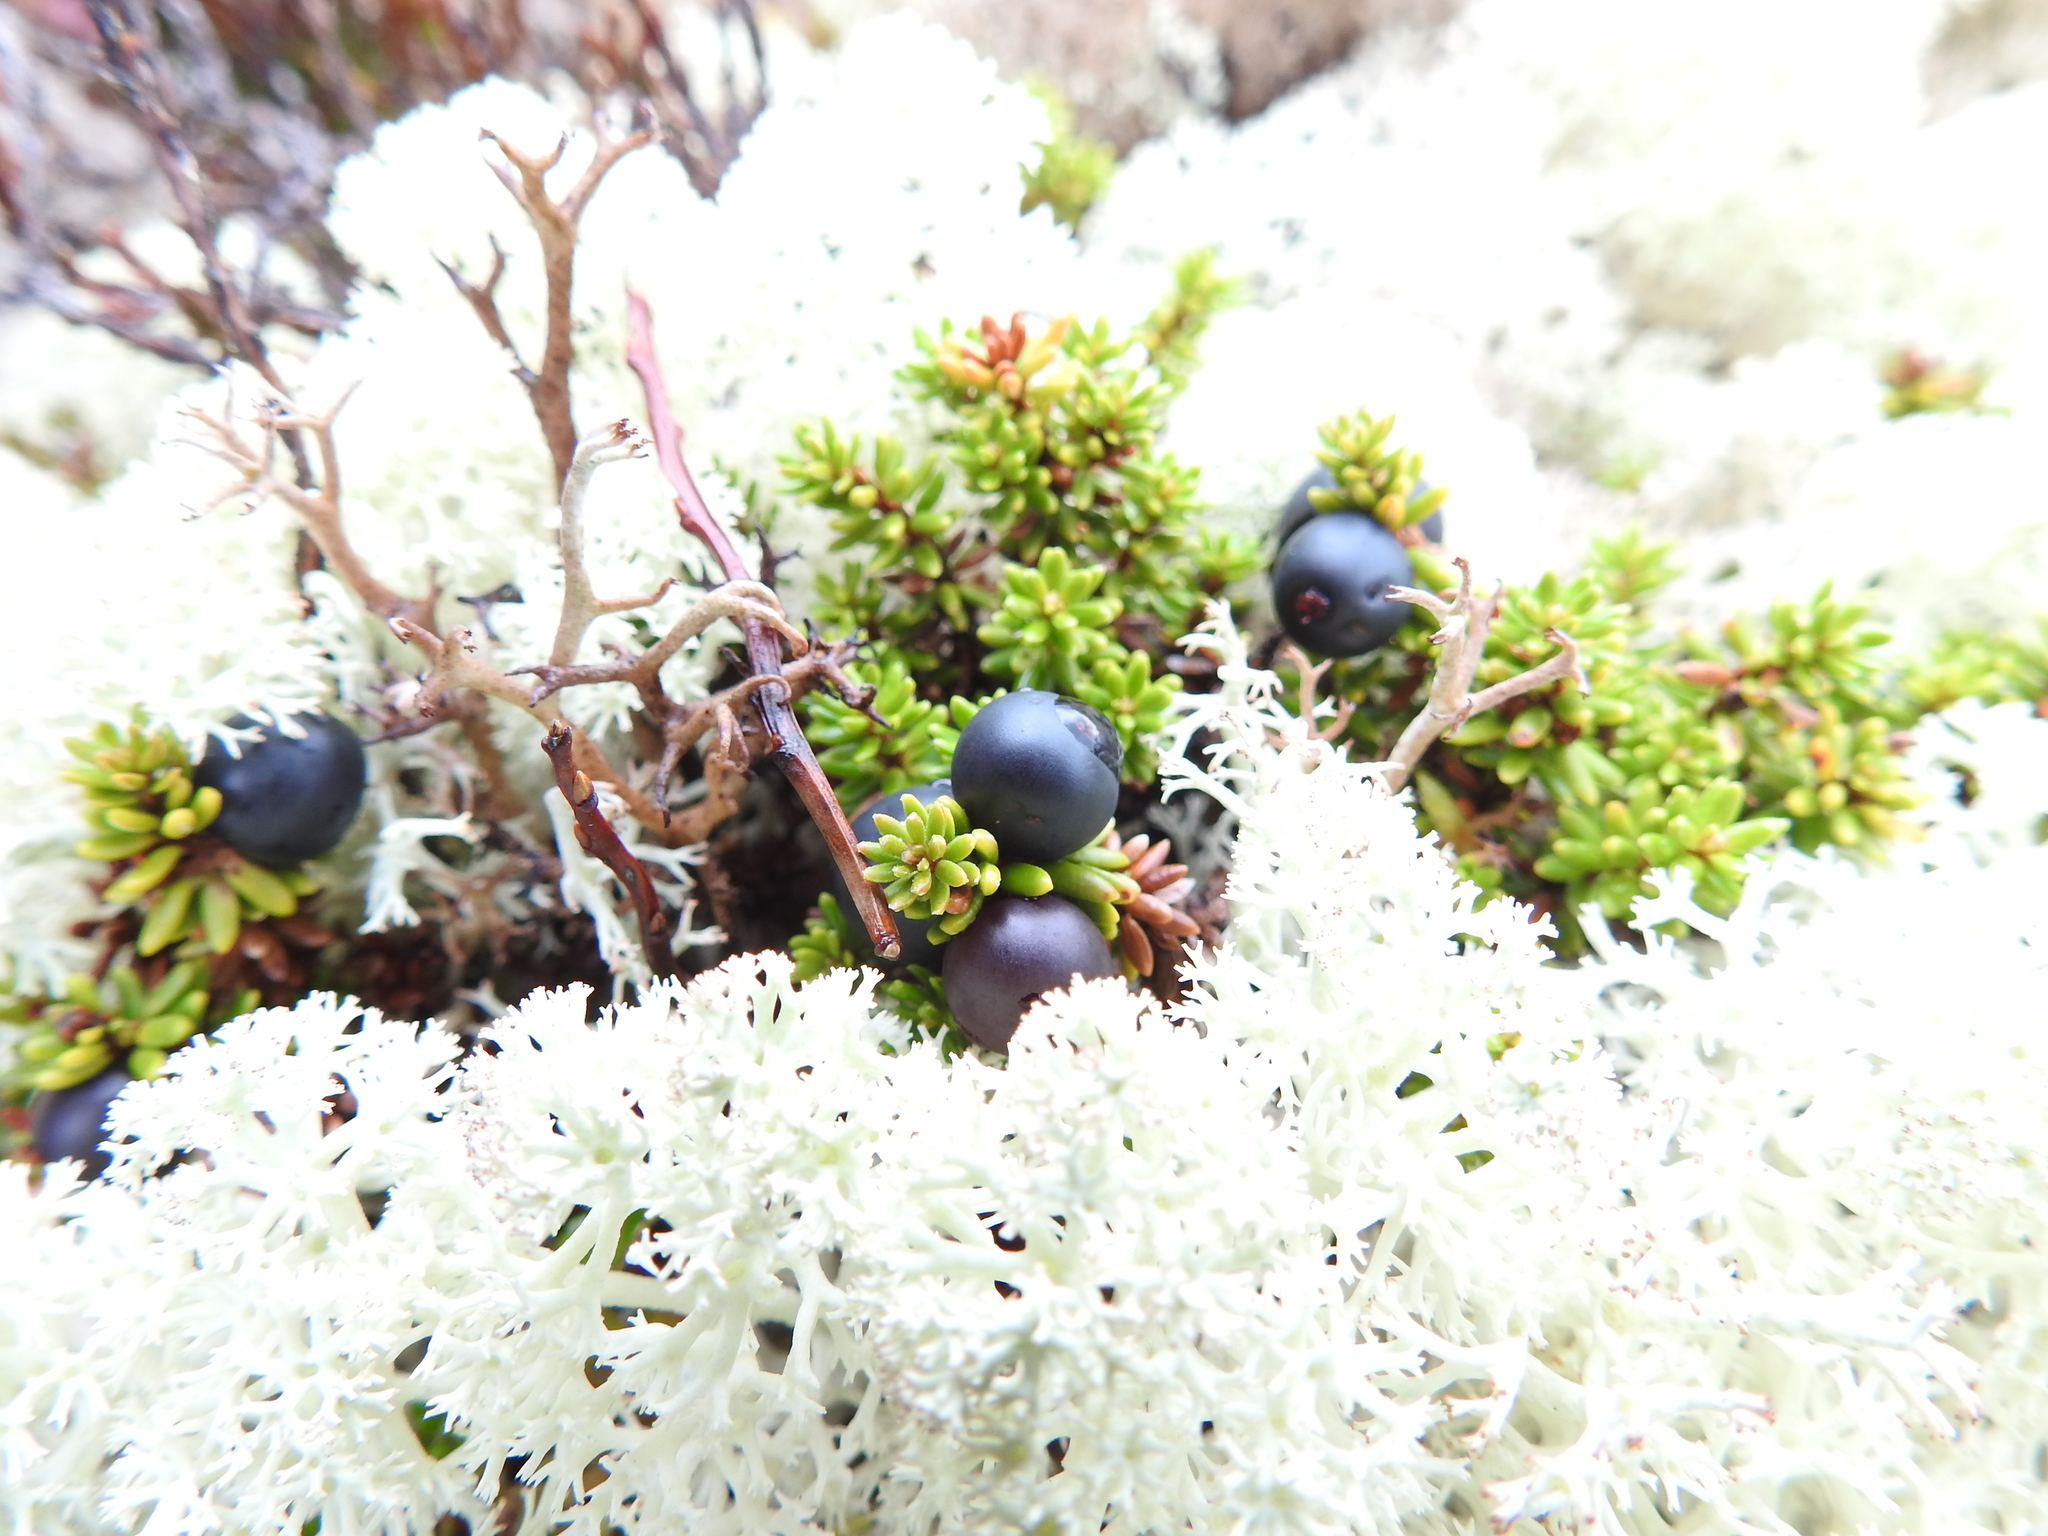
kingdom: Plantae
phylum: Tracheophyta
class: Magnoliopsida
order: Ericales
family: Ericaceae
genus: Empetrum
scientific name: Empetrum nigrum
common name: Black crowberry
